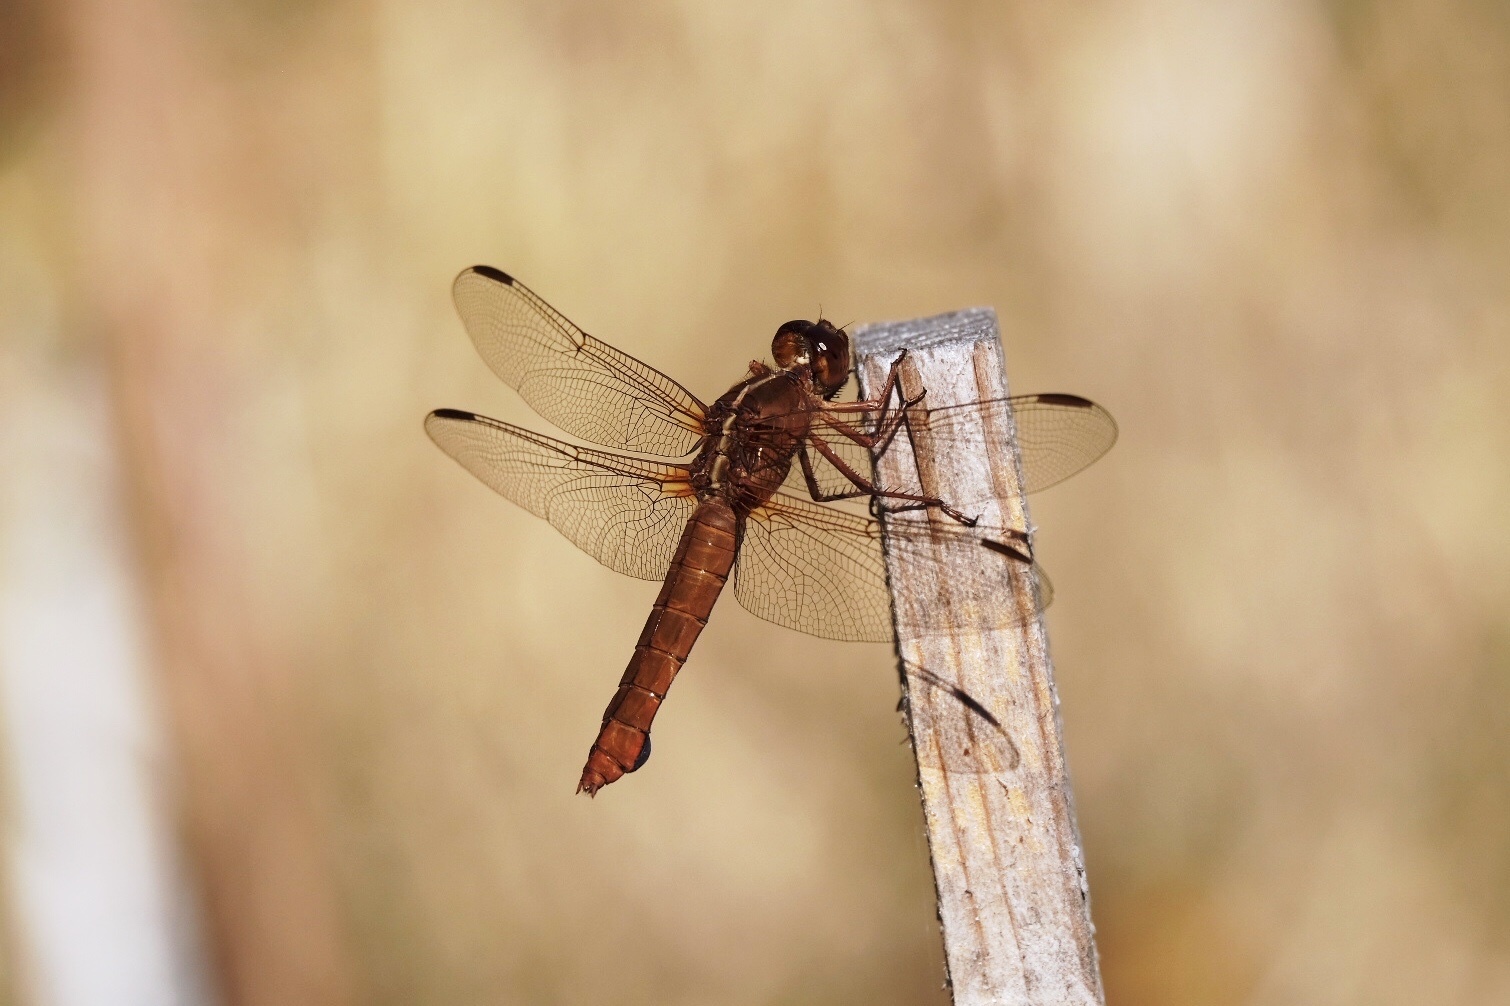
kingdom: Animalia
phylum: Arthropoda
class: Insecta
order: Odonata
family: Libellulidae
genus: Libellula
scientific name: Libellula saturata
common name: Flame skimmer
